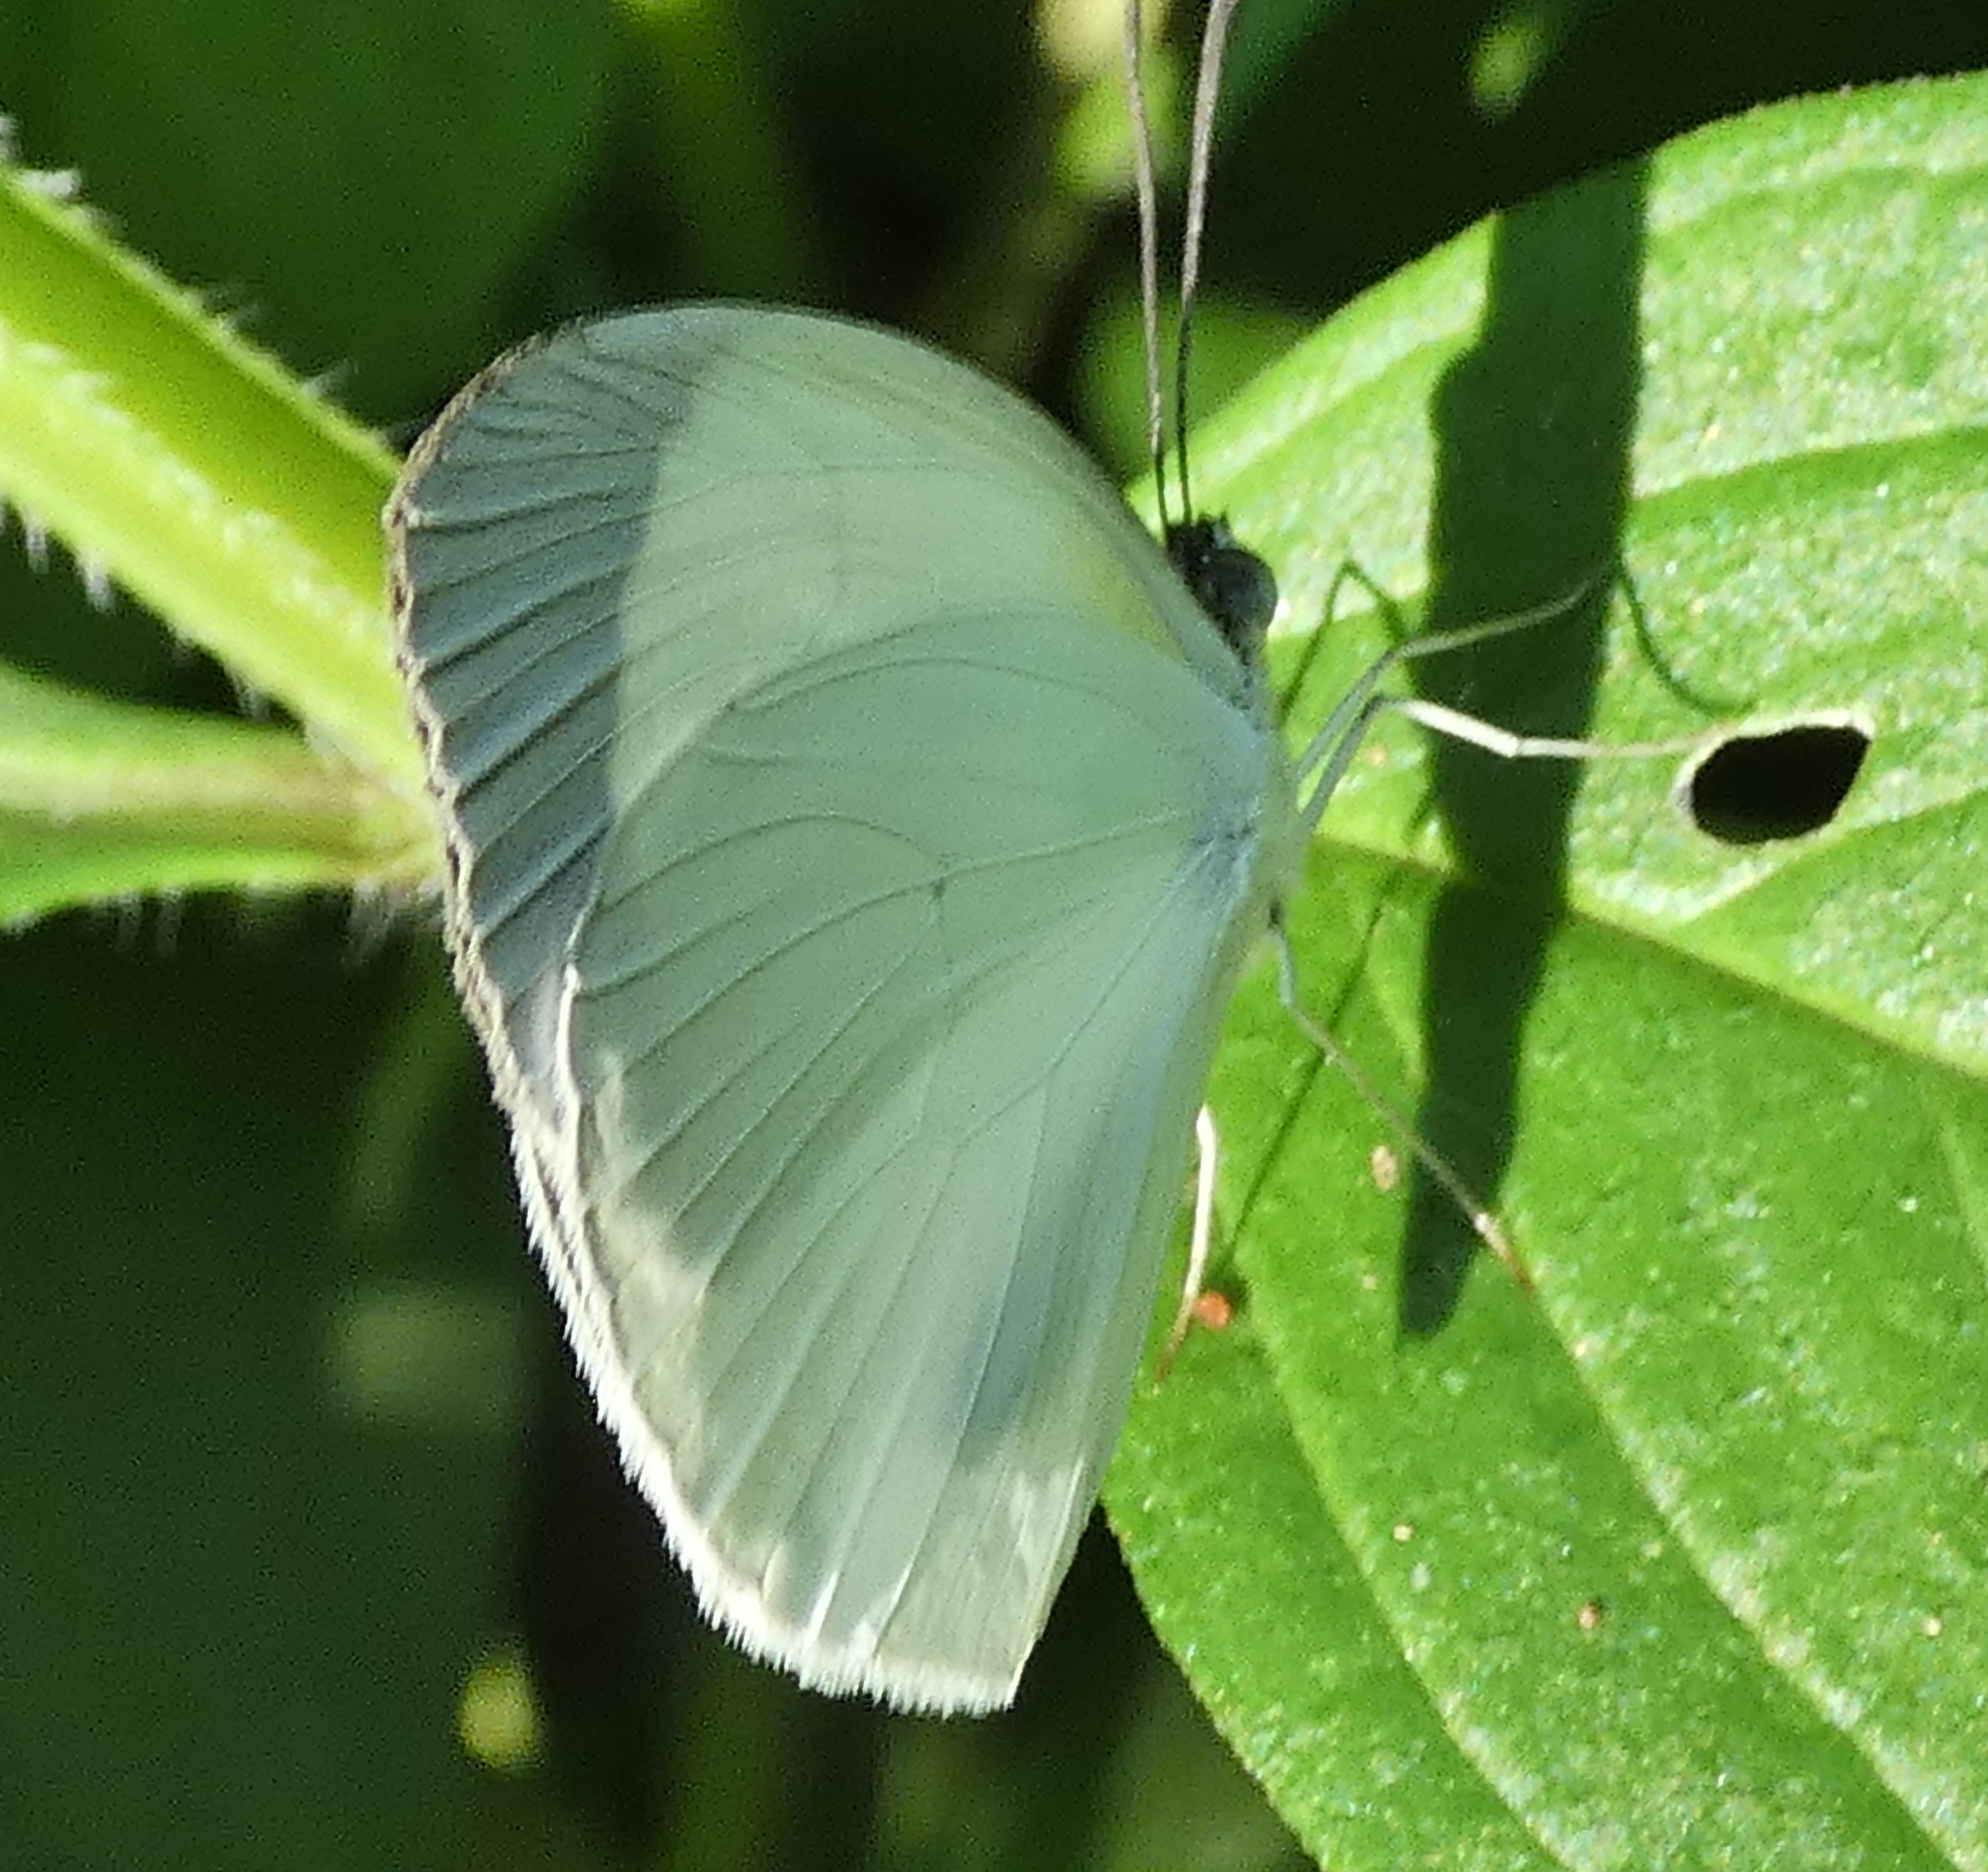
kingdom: Animalia
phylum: Arthropoda
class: Insecta
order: Lepidoptera
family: Pieridae
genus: Abaeis
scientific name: Abaeis albula
